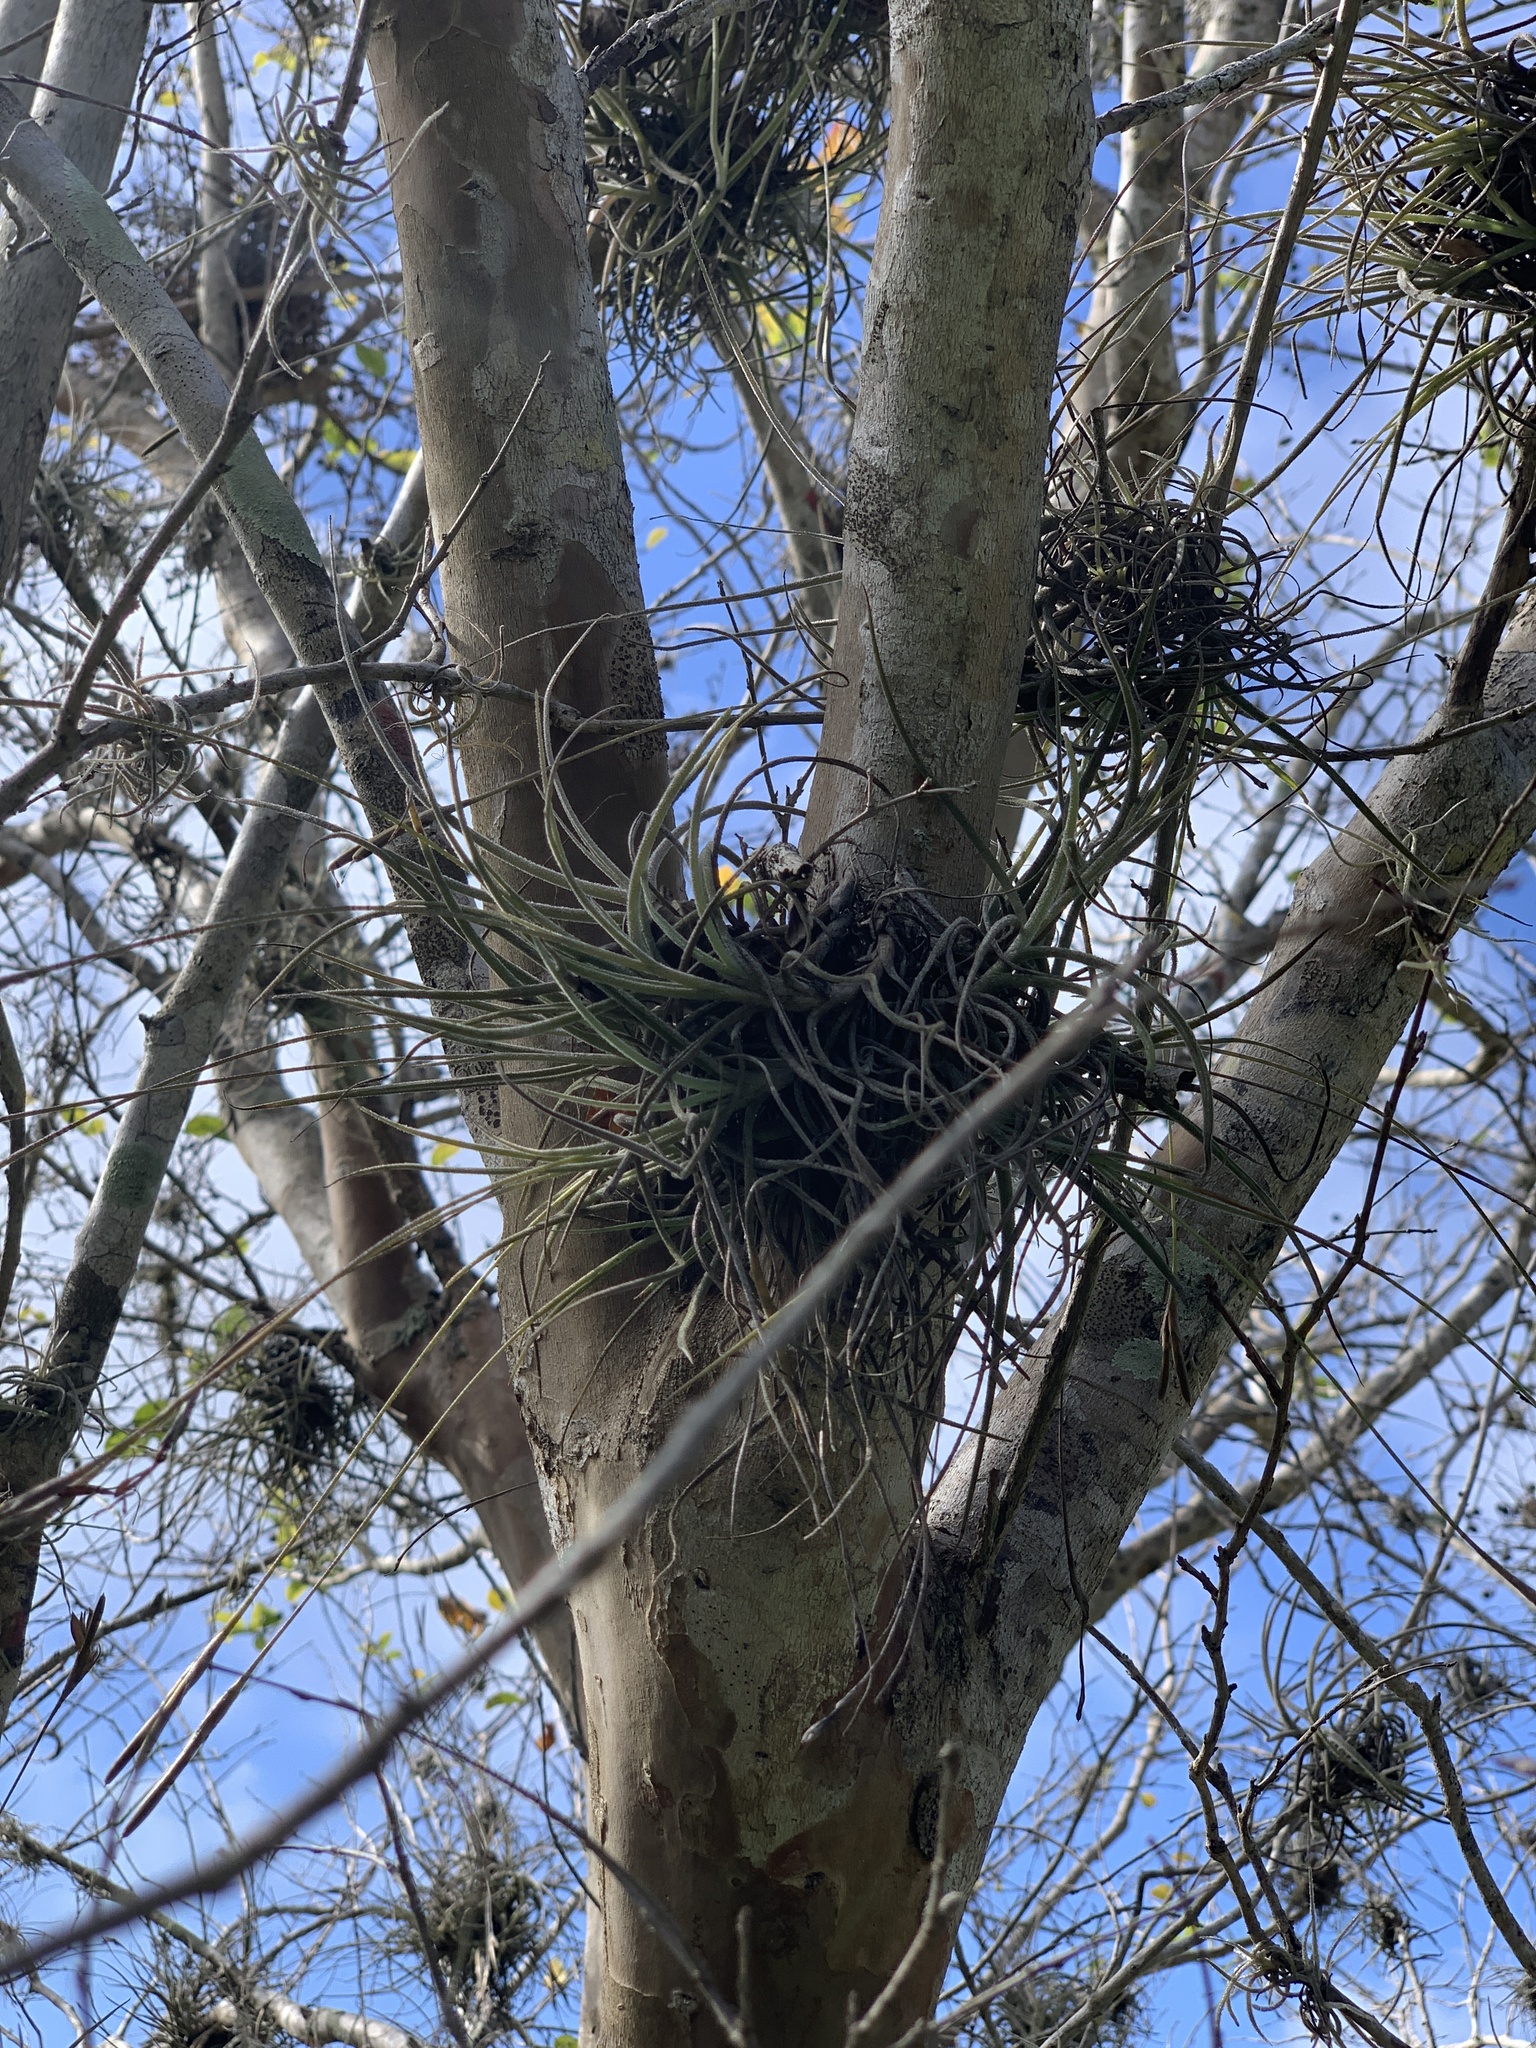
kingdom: Plantae
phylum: Tracheophyta
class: Liliopsida
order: Poales
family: Bromeliaceae
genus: Tillandsia
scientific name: Tillandsia recurvata
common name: Small ballmoss
